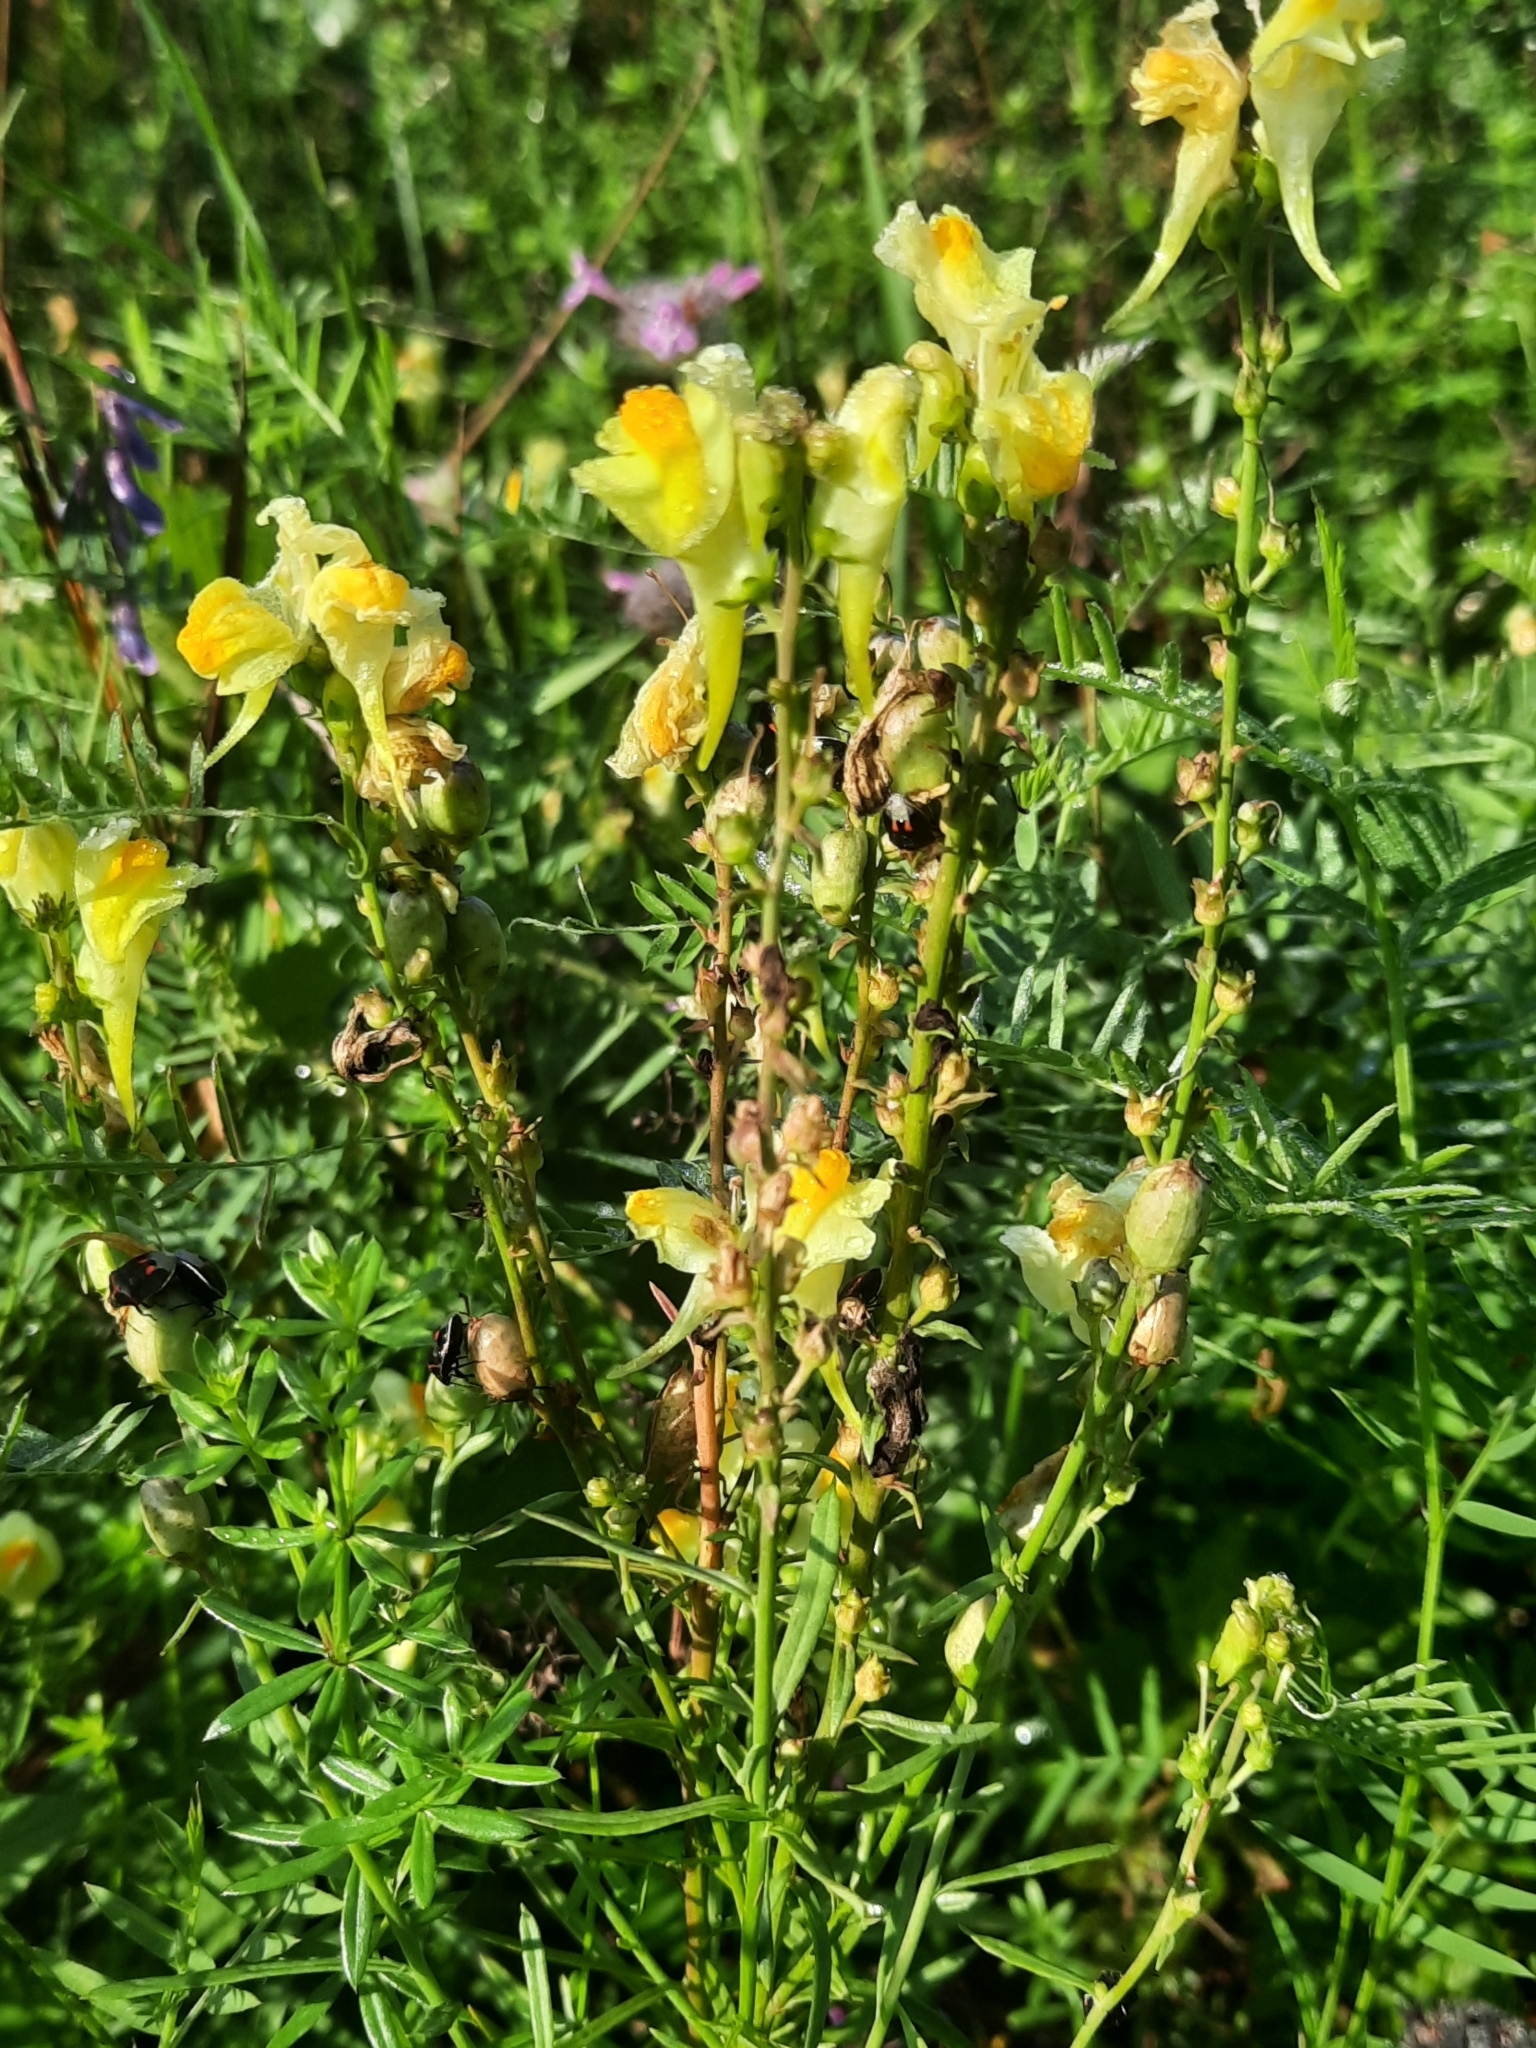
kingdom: Plantae
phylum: Tracheophyta
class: Magnoliopsida
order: Lamiales
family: Plantaginaceae
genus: Linaria
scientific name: Linaria vulgaris
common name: Butter and eggs
